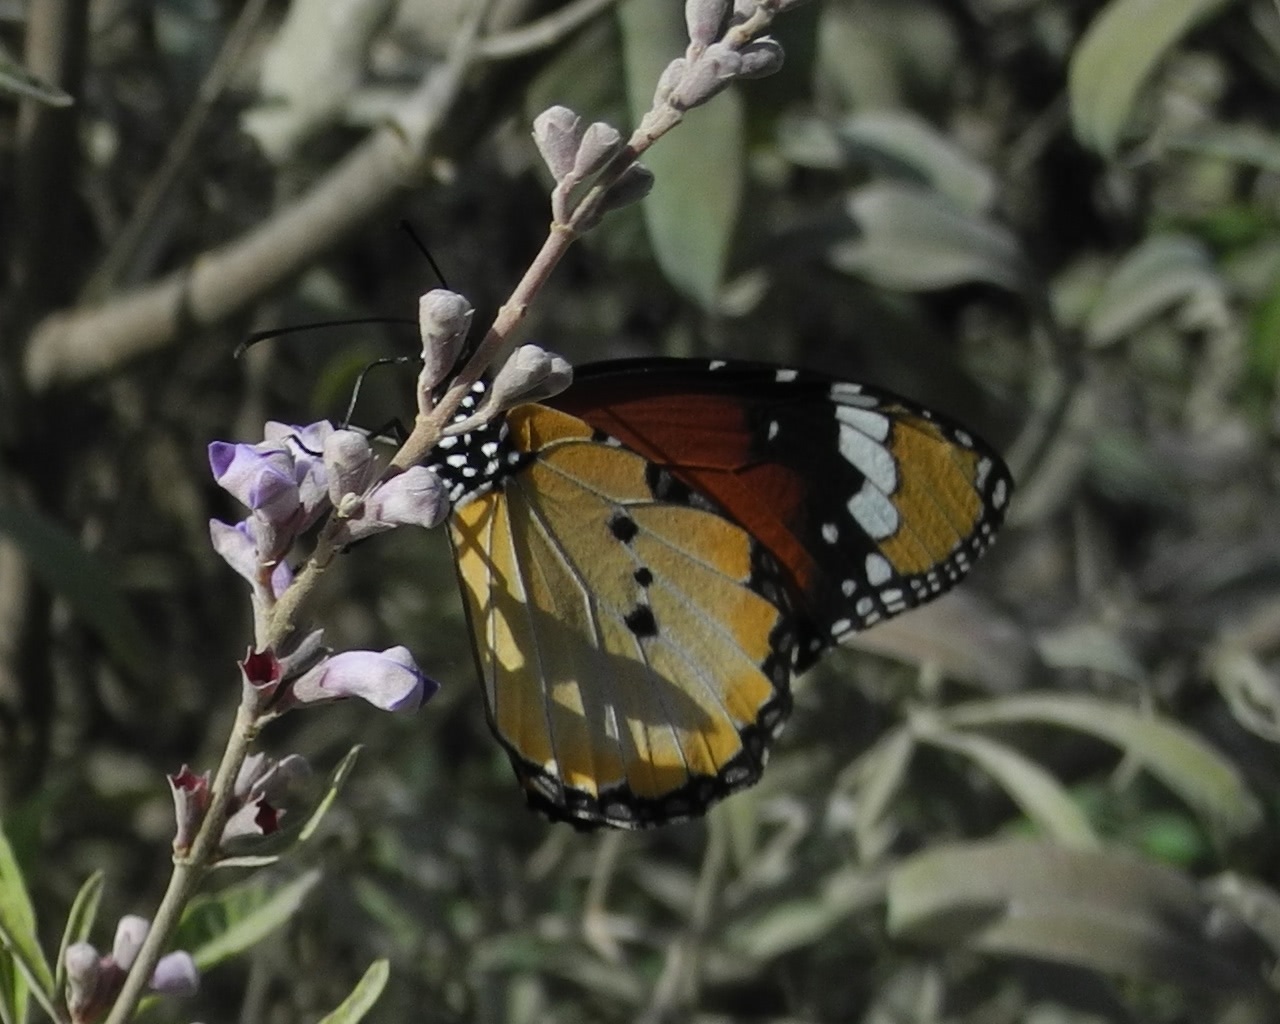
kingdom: Animalia
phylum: Arthropoda
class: Insecta
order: Lepidoptera
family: Nymphalidae
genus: Danaus
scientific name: Danaus chrysippus
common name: Plain tiger
